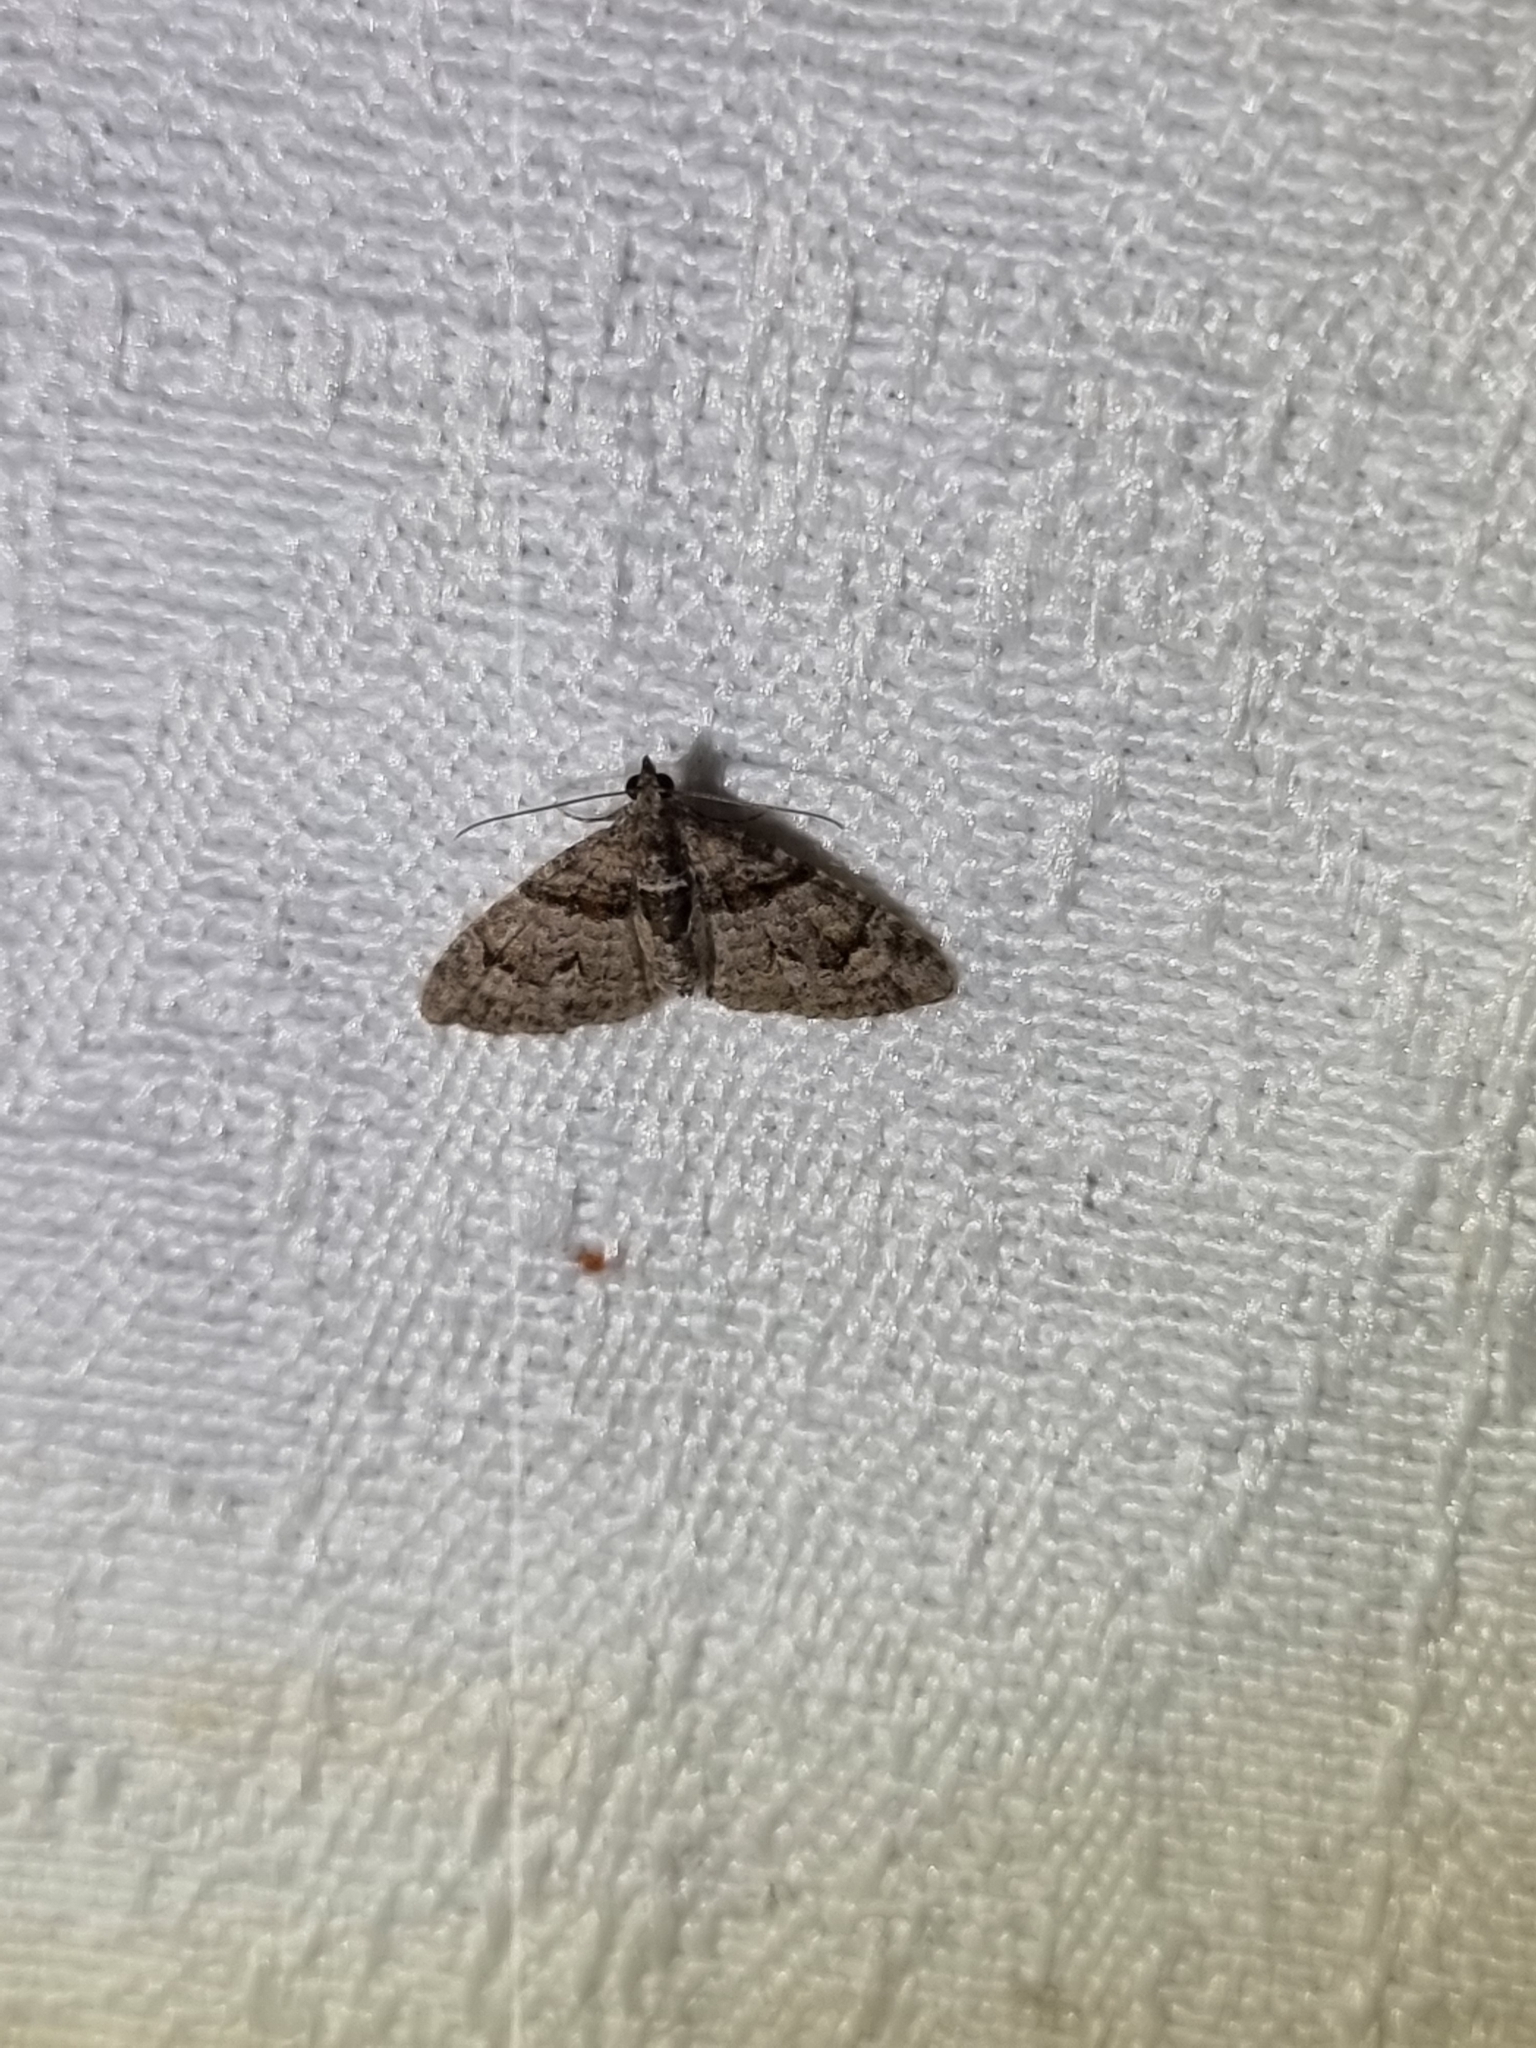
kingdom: Animalia
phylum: Arthropoda
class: Insecta
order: Lepidoptera
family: Geometridae
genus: Phrissogonus
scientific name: Phrissogonus laticostata
